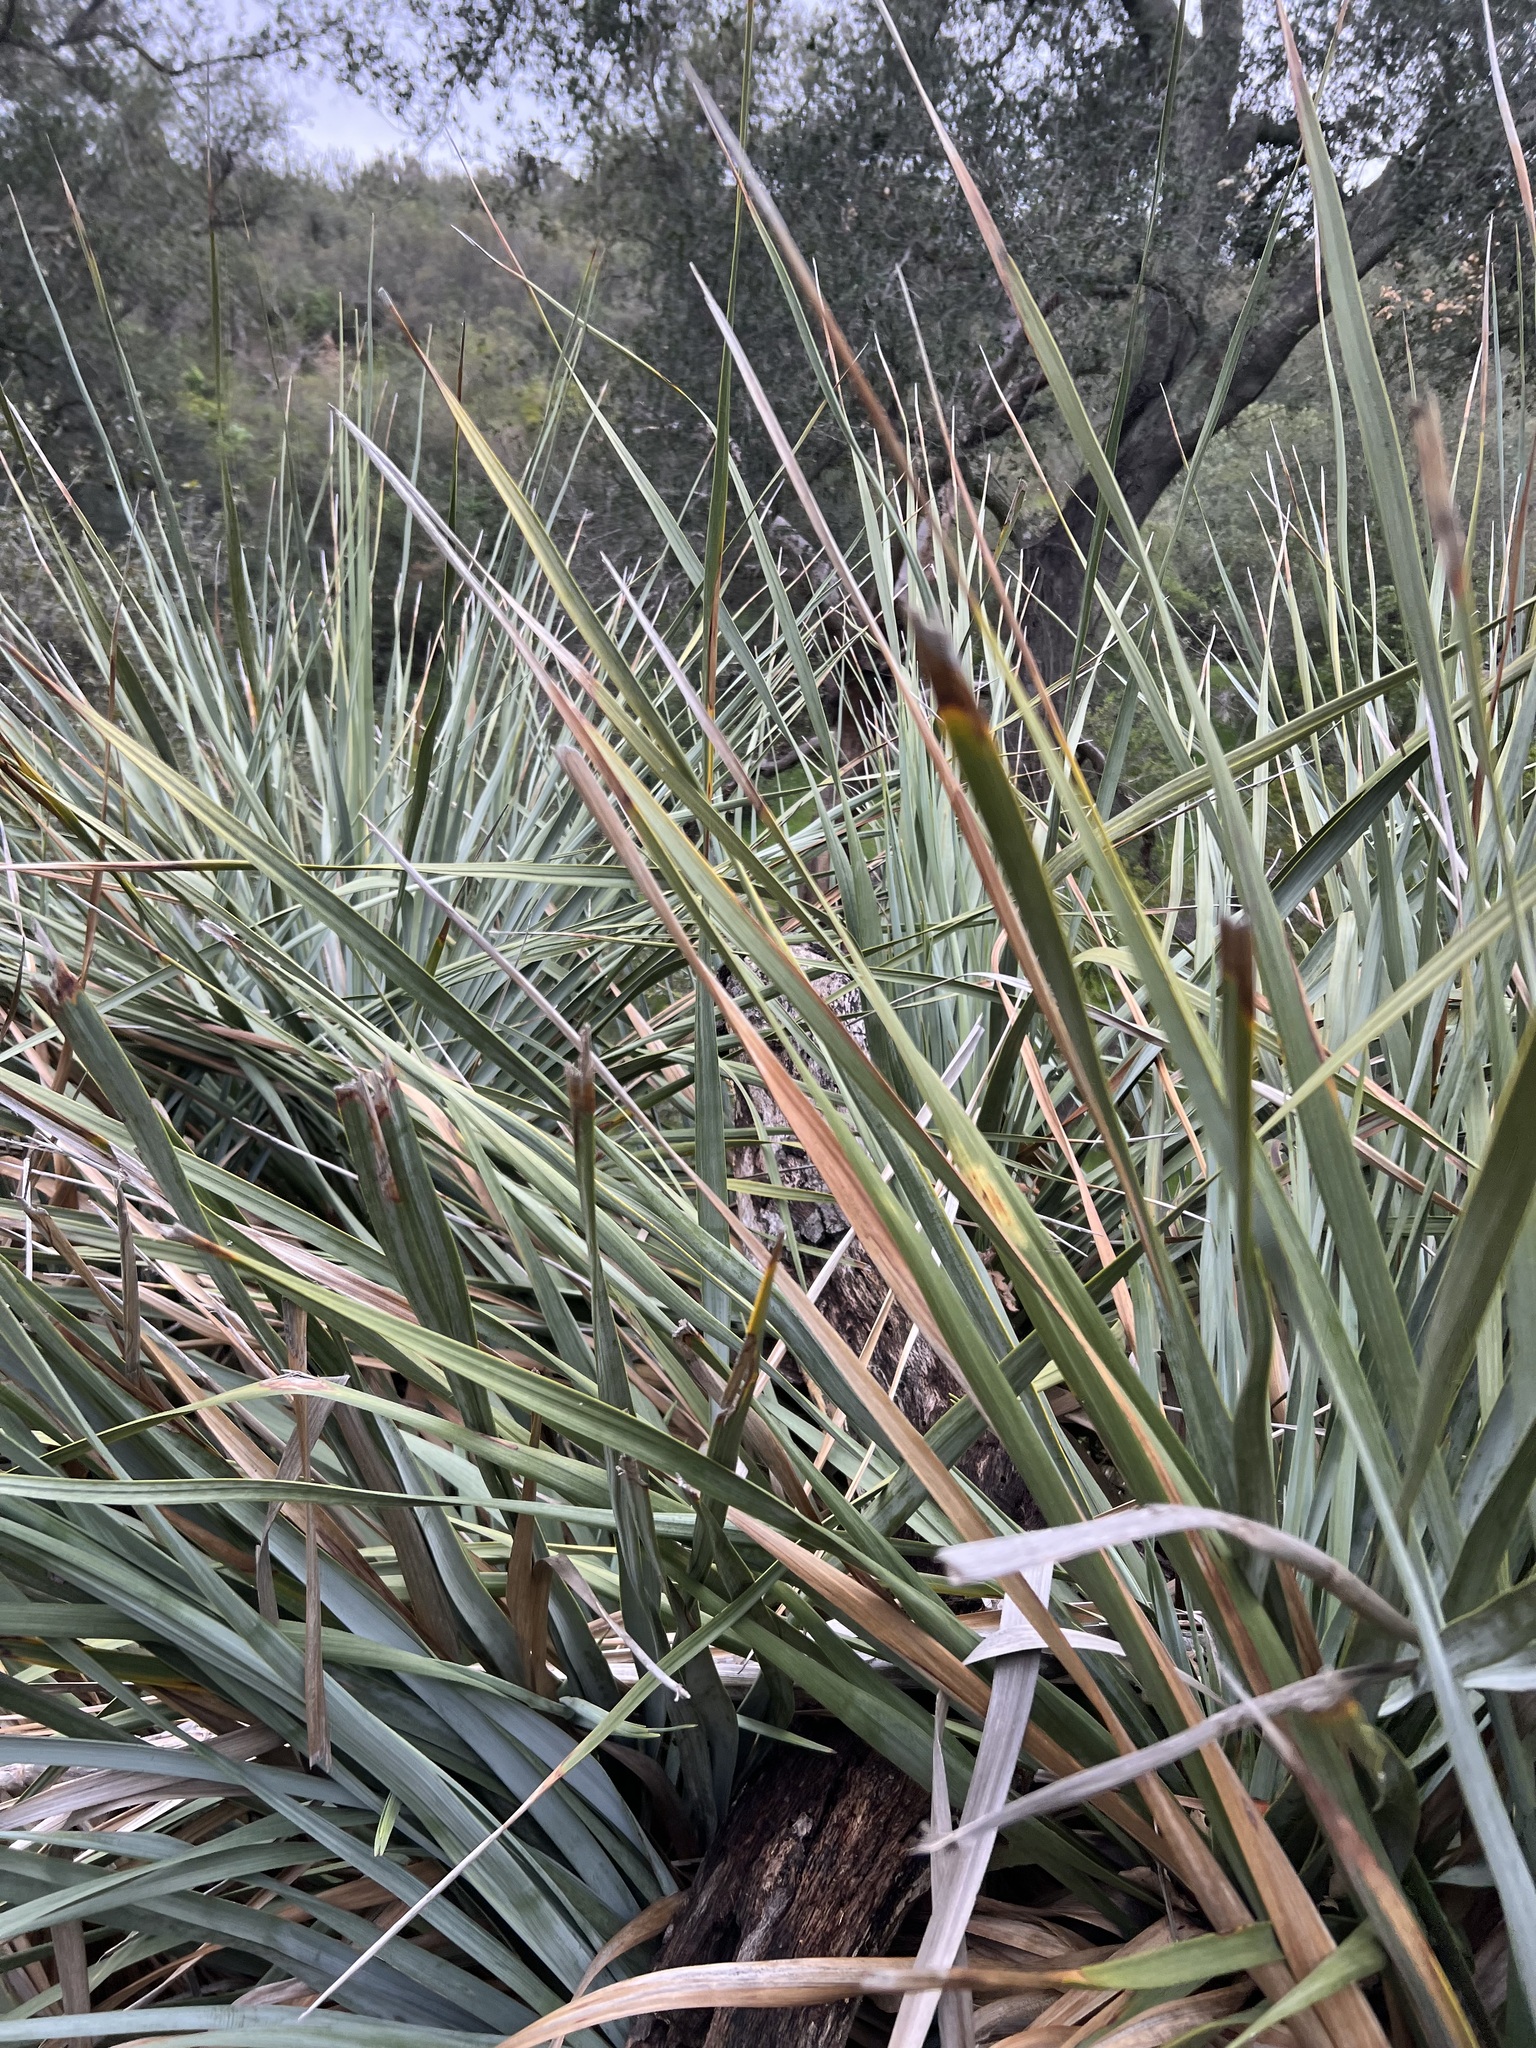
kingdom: Plantae
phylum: Tracheophyta
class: Liliopsida
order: Asparagales
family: Asparagaceae
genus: Nolina
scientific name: Nolina cismontana
